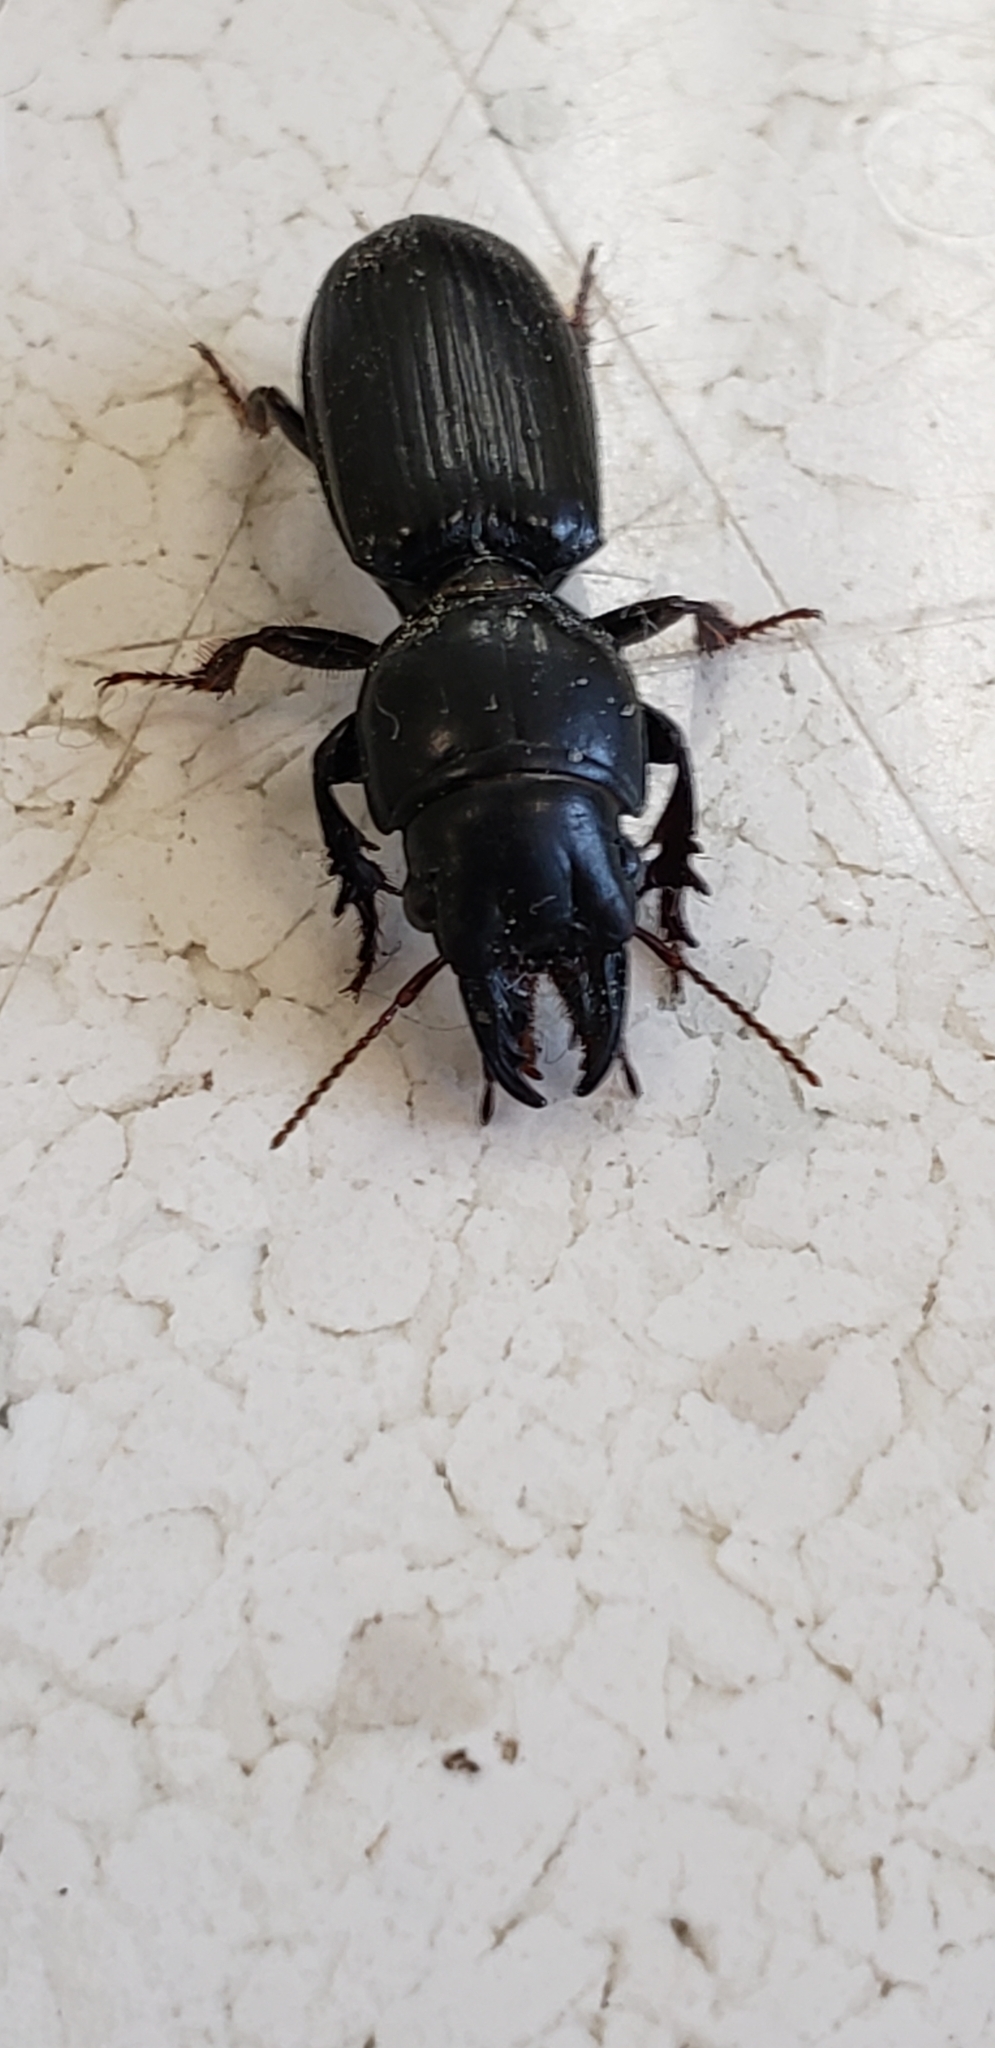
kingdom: Animalia
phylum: Arthropoda
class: Insecta
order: Coleoptera
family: Carabidae
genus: Scarites
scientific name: Scarites subterraneus
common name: Big-headed ground beetle
